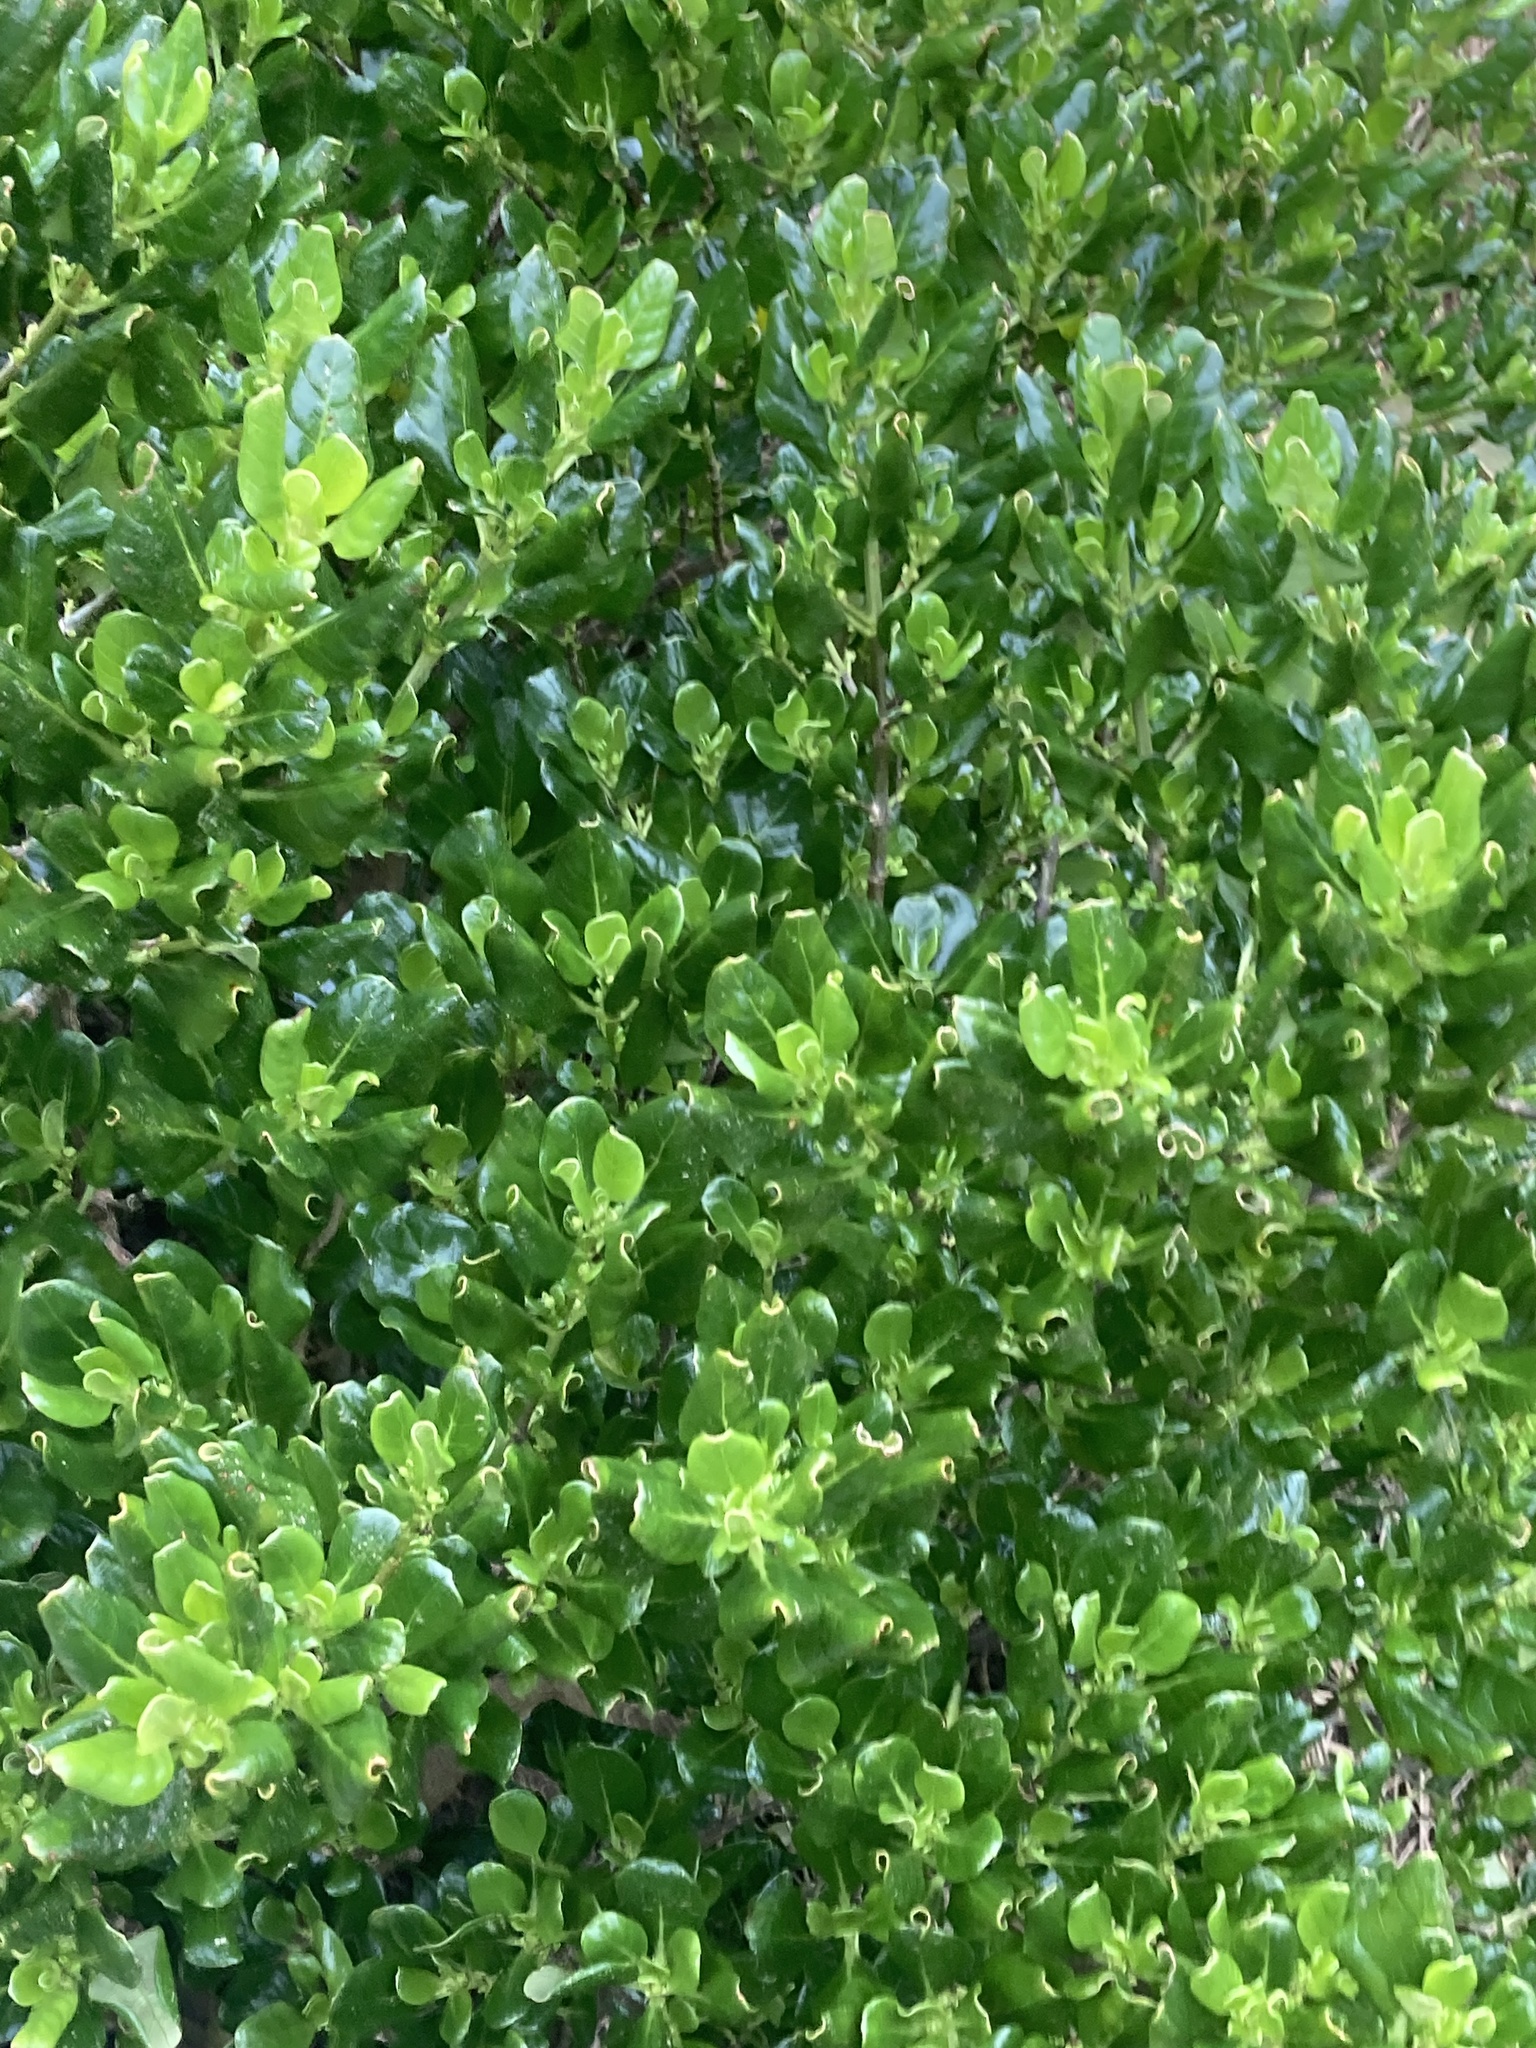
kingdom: Plantae
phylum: Tracheophyta
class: Magnoliopsida
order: Gentianales
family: Rubiaceae
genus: Coprosma
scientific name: Coprosma repens
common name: Tree bedstraw
